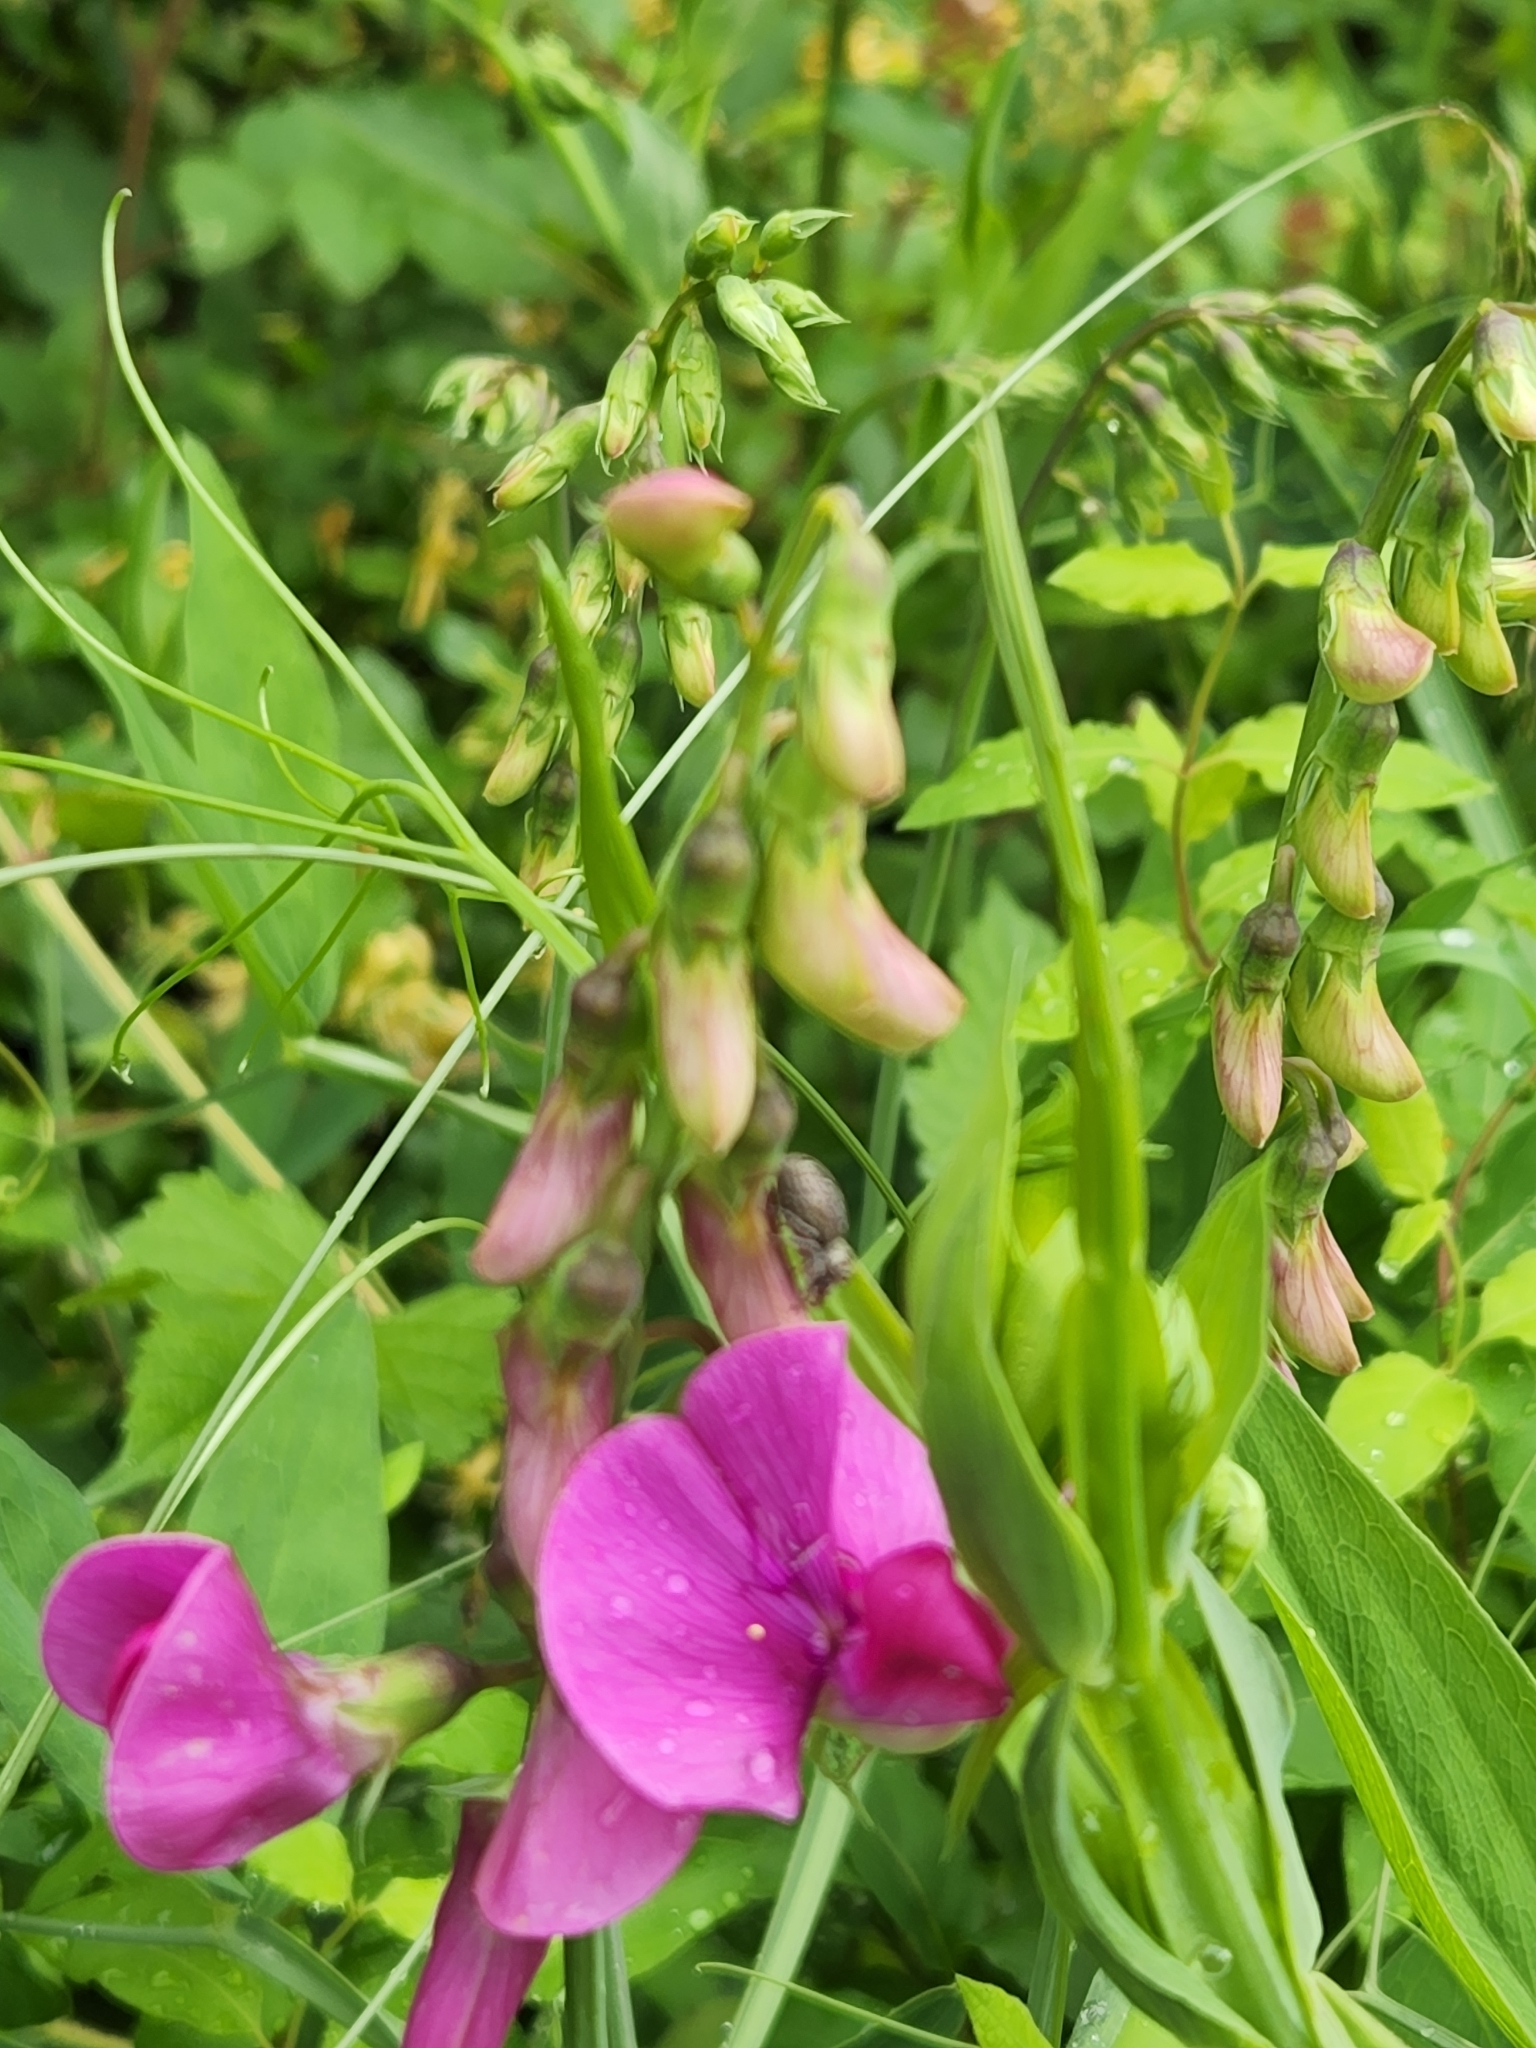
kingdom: Plantae
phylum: Tracheophyta
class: Magnoliopsida
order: Fabales
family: Fabaceae
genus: Lathyrus
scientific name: Lathyrus latifolius
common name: Perennial pea
